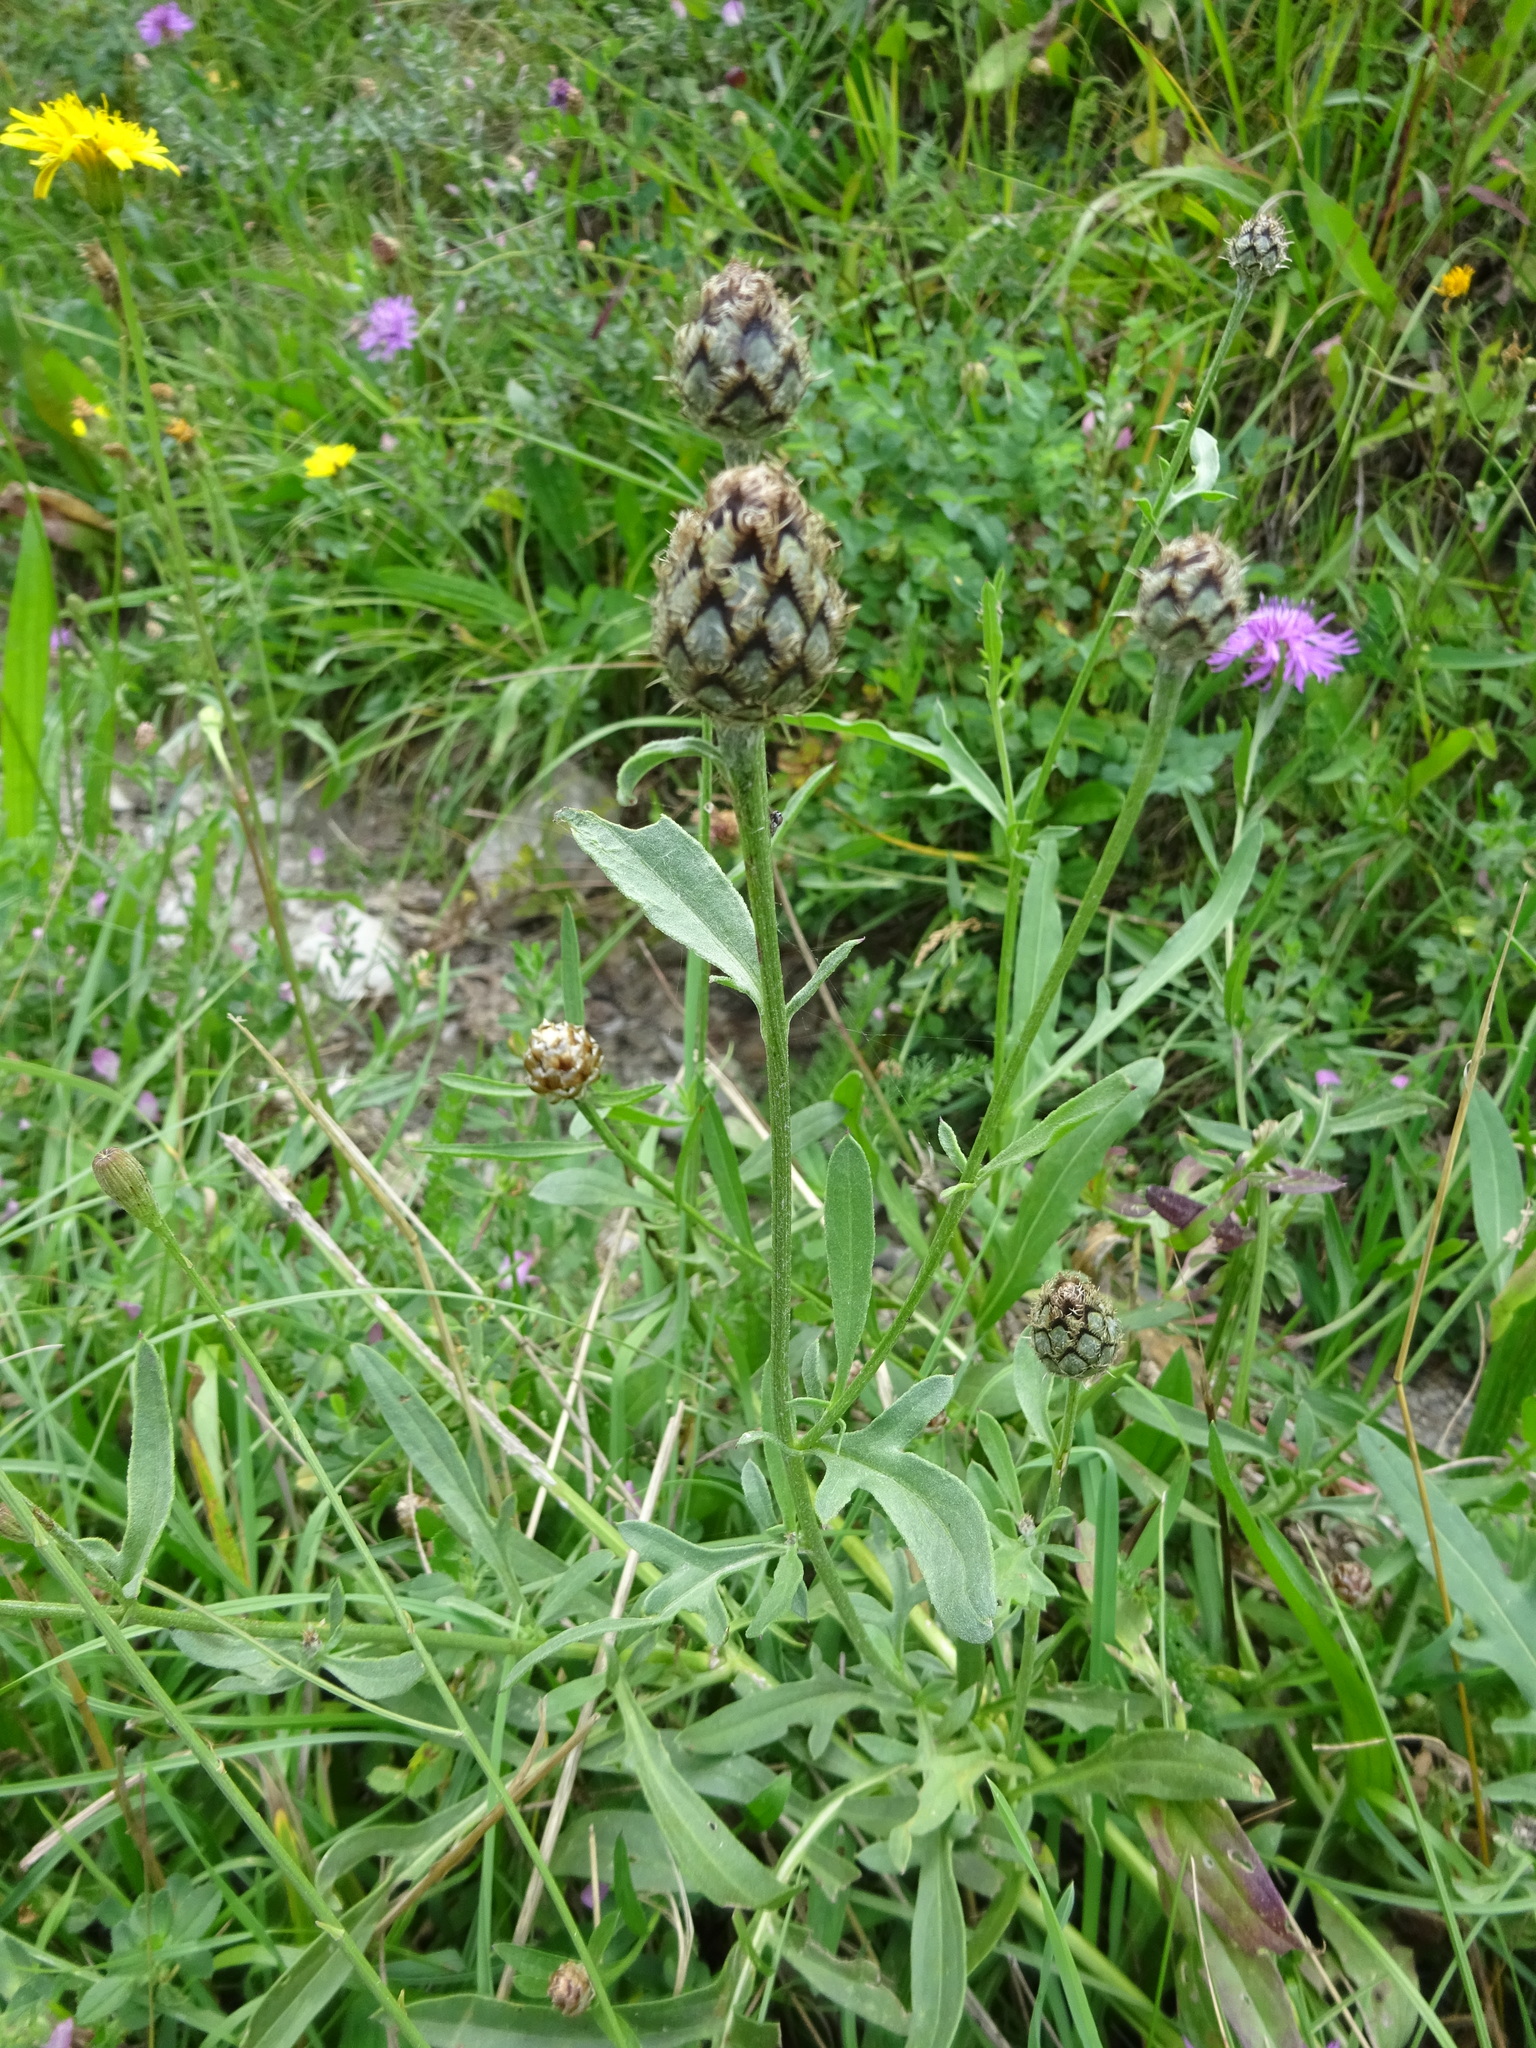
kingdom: Plantae
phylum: Tracheophyta
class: Magnoliopsida
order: Asterales
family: Asteraceae
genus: Centaurea
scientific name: Centaurea scabiosa
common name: Greater knapweed
